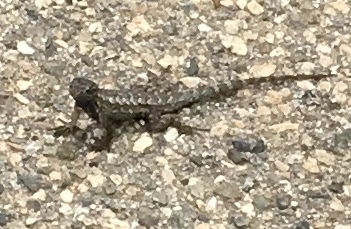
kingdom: Animalia
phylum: Chordata
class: Squamata
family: Phrynosomatidae
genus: Sceloporus
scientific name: Sceloporus occidentalis
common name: Western fence lizard
